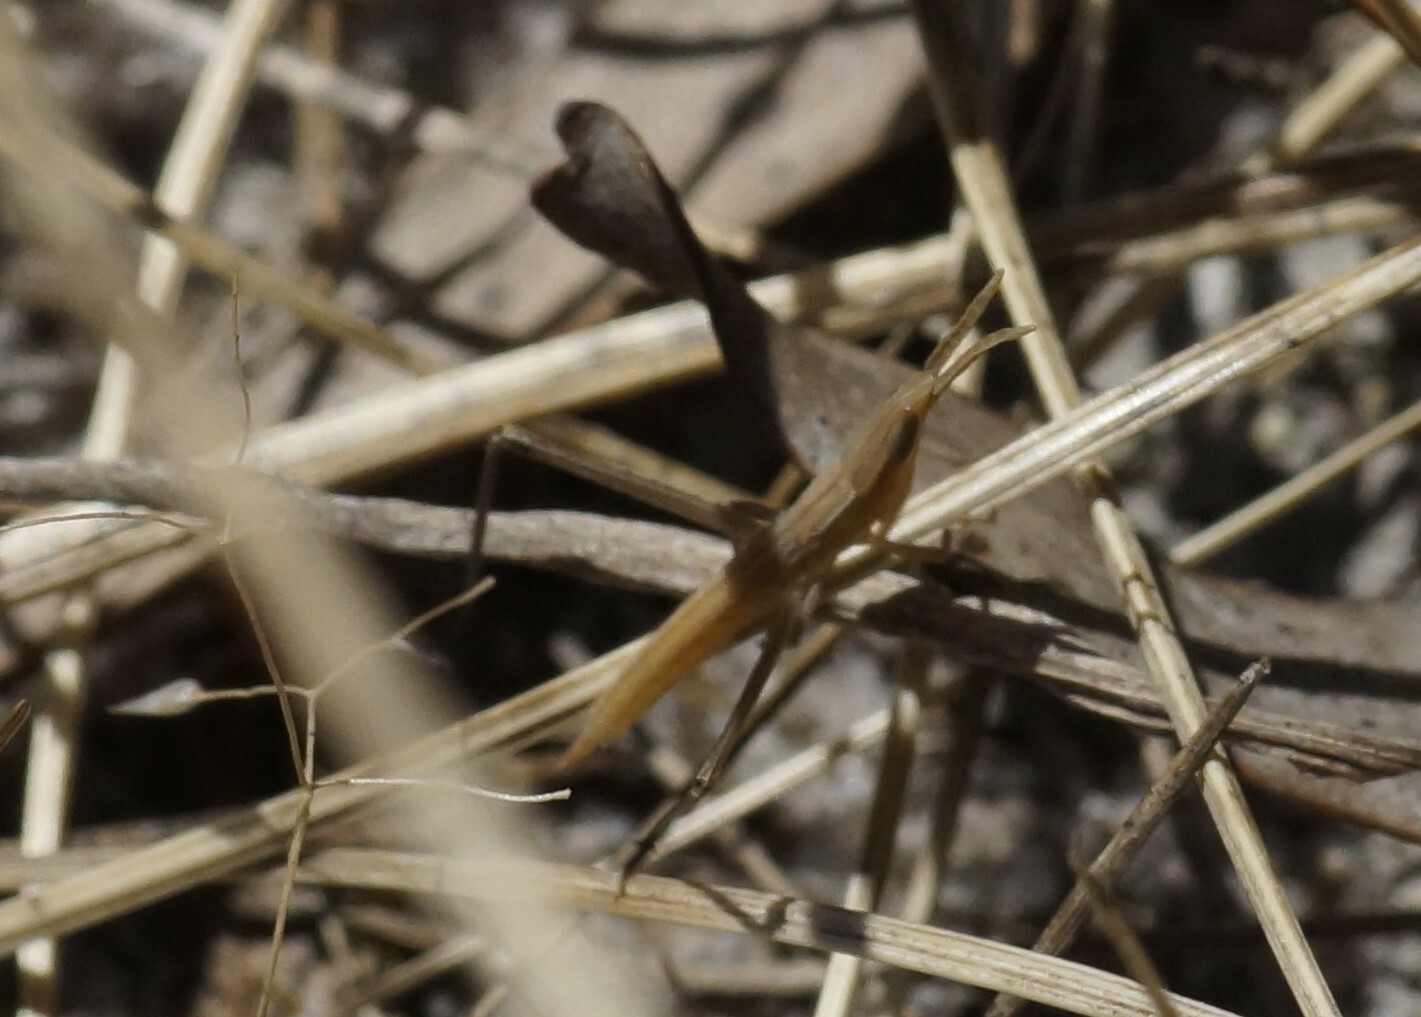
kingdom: Animalia
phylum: Arthropoda
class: Insecta
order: Orthoptera
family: Acrididae
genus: Acrida
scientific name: Acrida conica
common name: Giant green slantface
